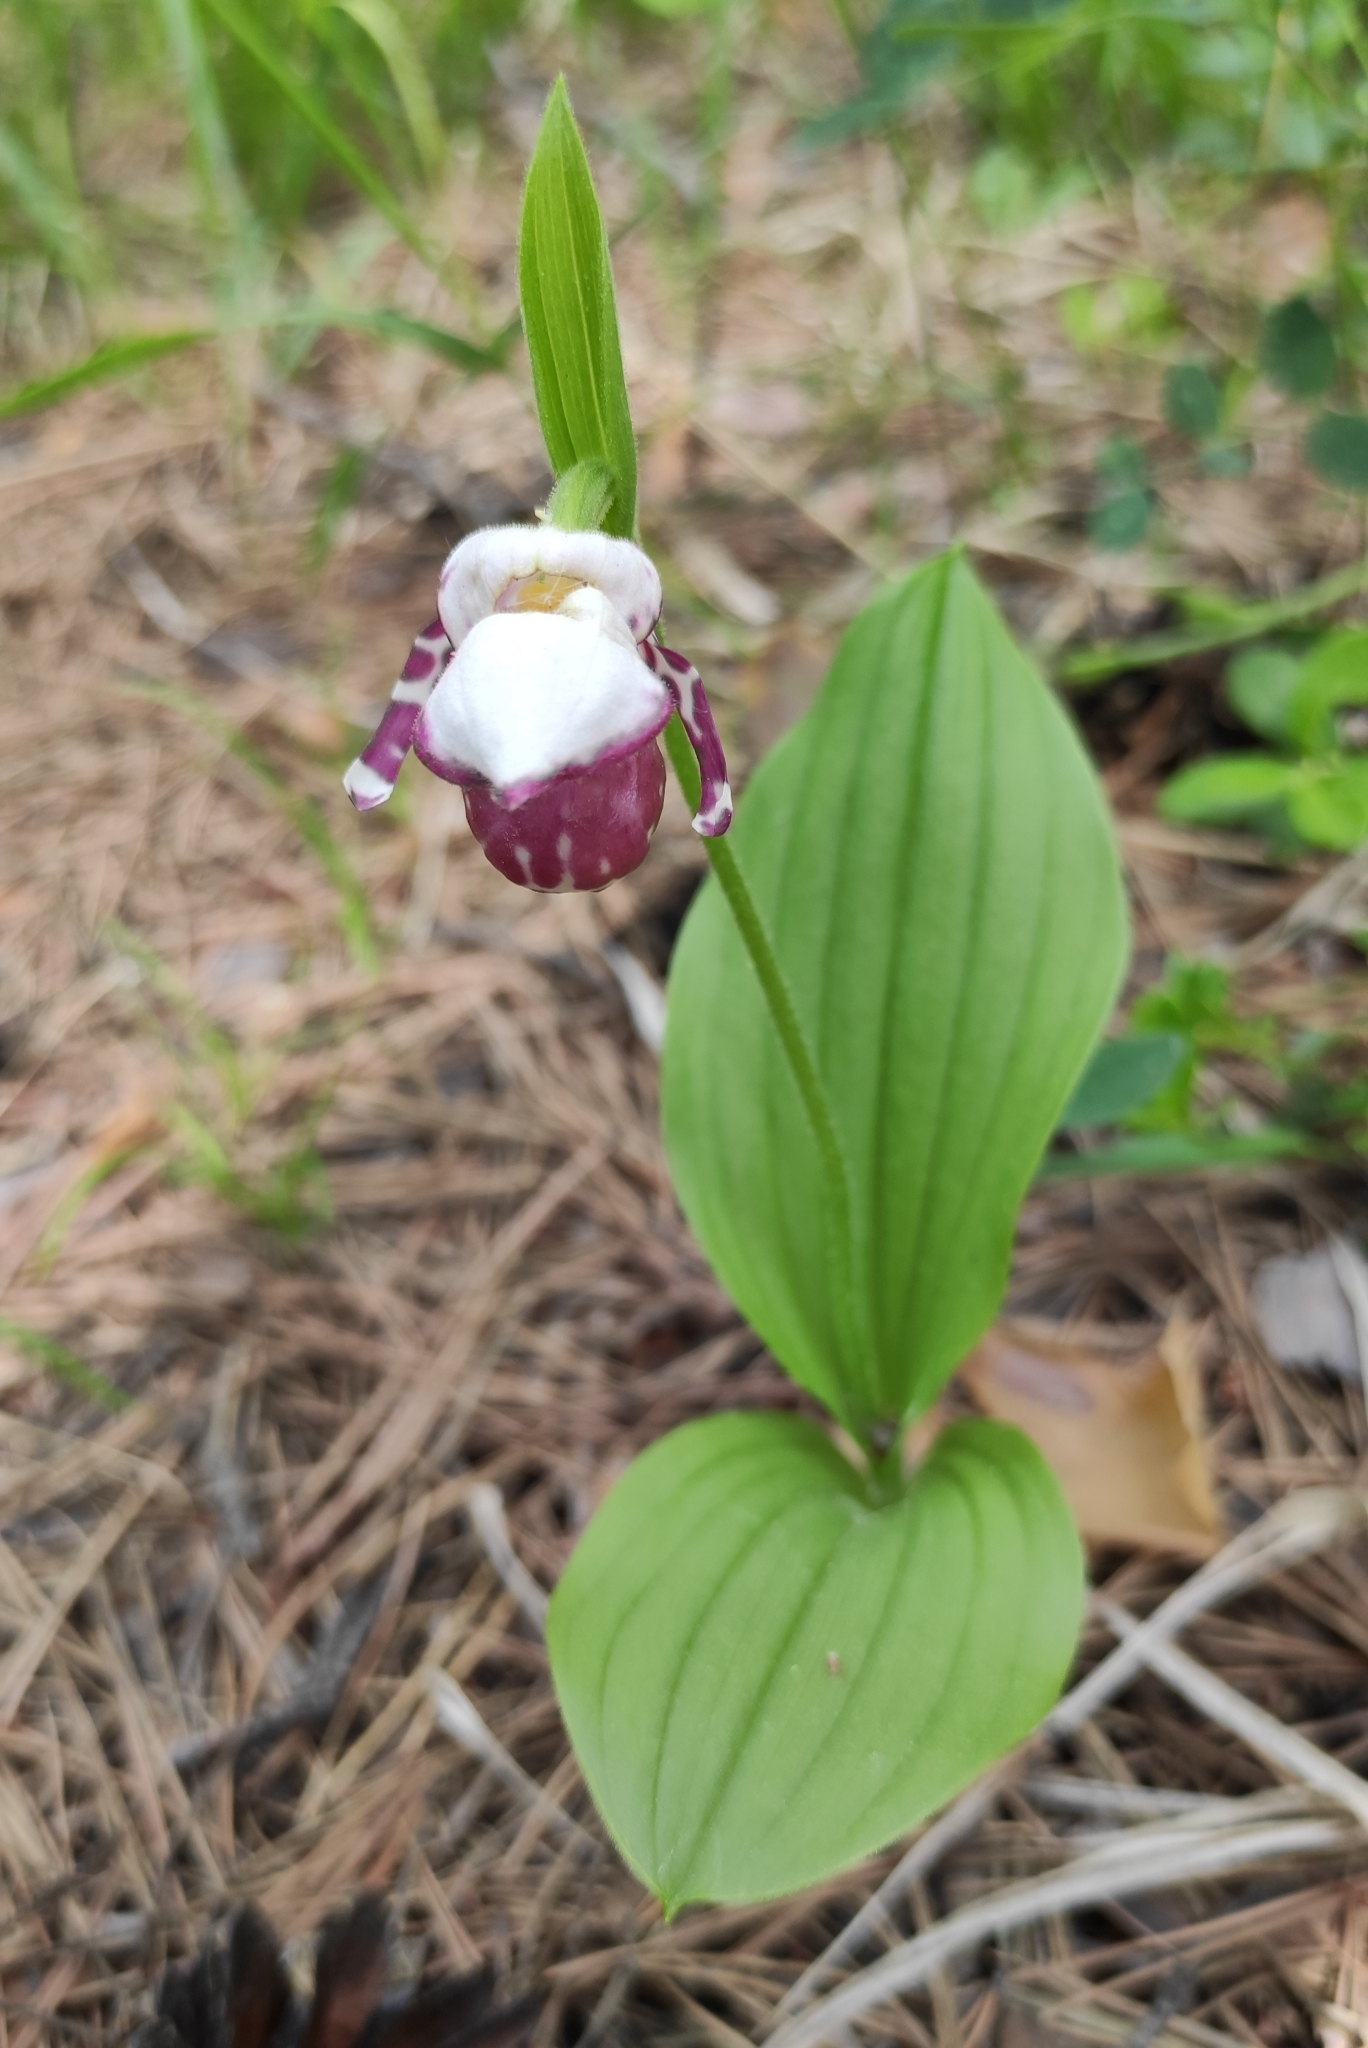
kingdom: Plantae
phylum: Tracheophyta
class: Liliopsida
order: Asparagales
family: Orchidaceae
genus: Cypripedium
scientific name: Cypripedium guttatum
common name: Pink lady slipper
